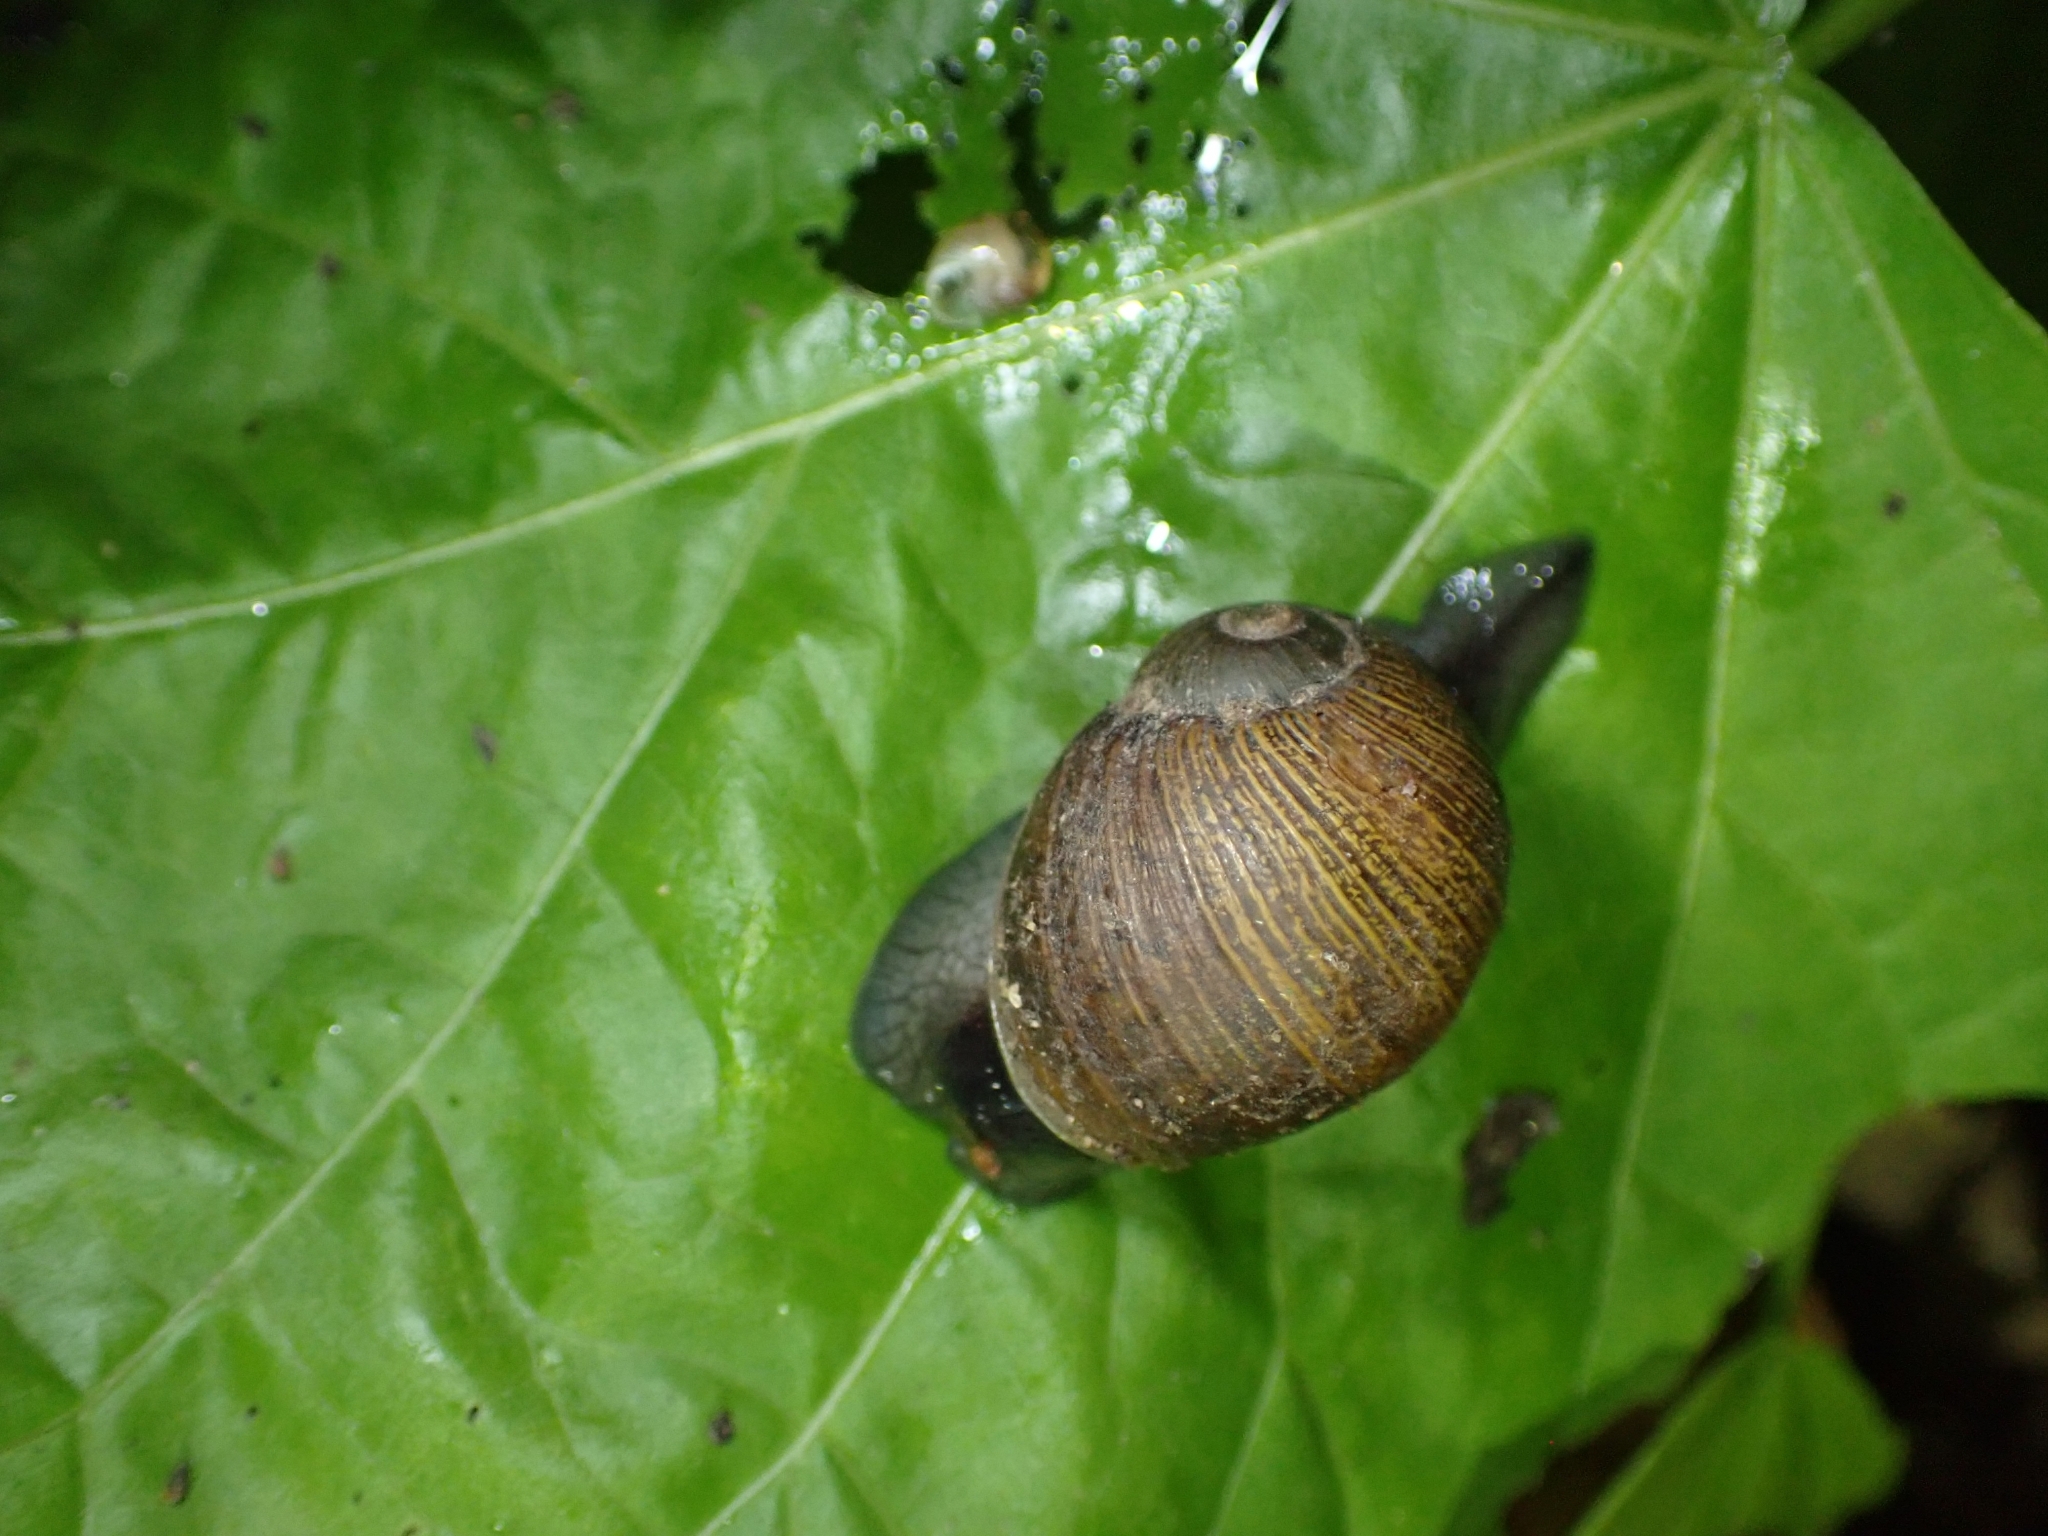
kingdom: Animalia
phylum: Mollusca
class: Gastropoda
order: Stylommatophora
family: Helicidae
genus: Cantareus
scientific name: Cantareus apertus
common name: Green gardensnail
